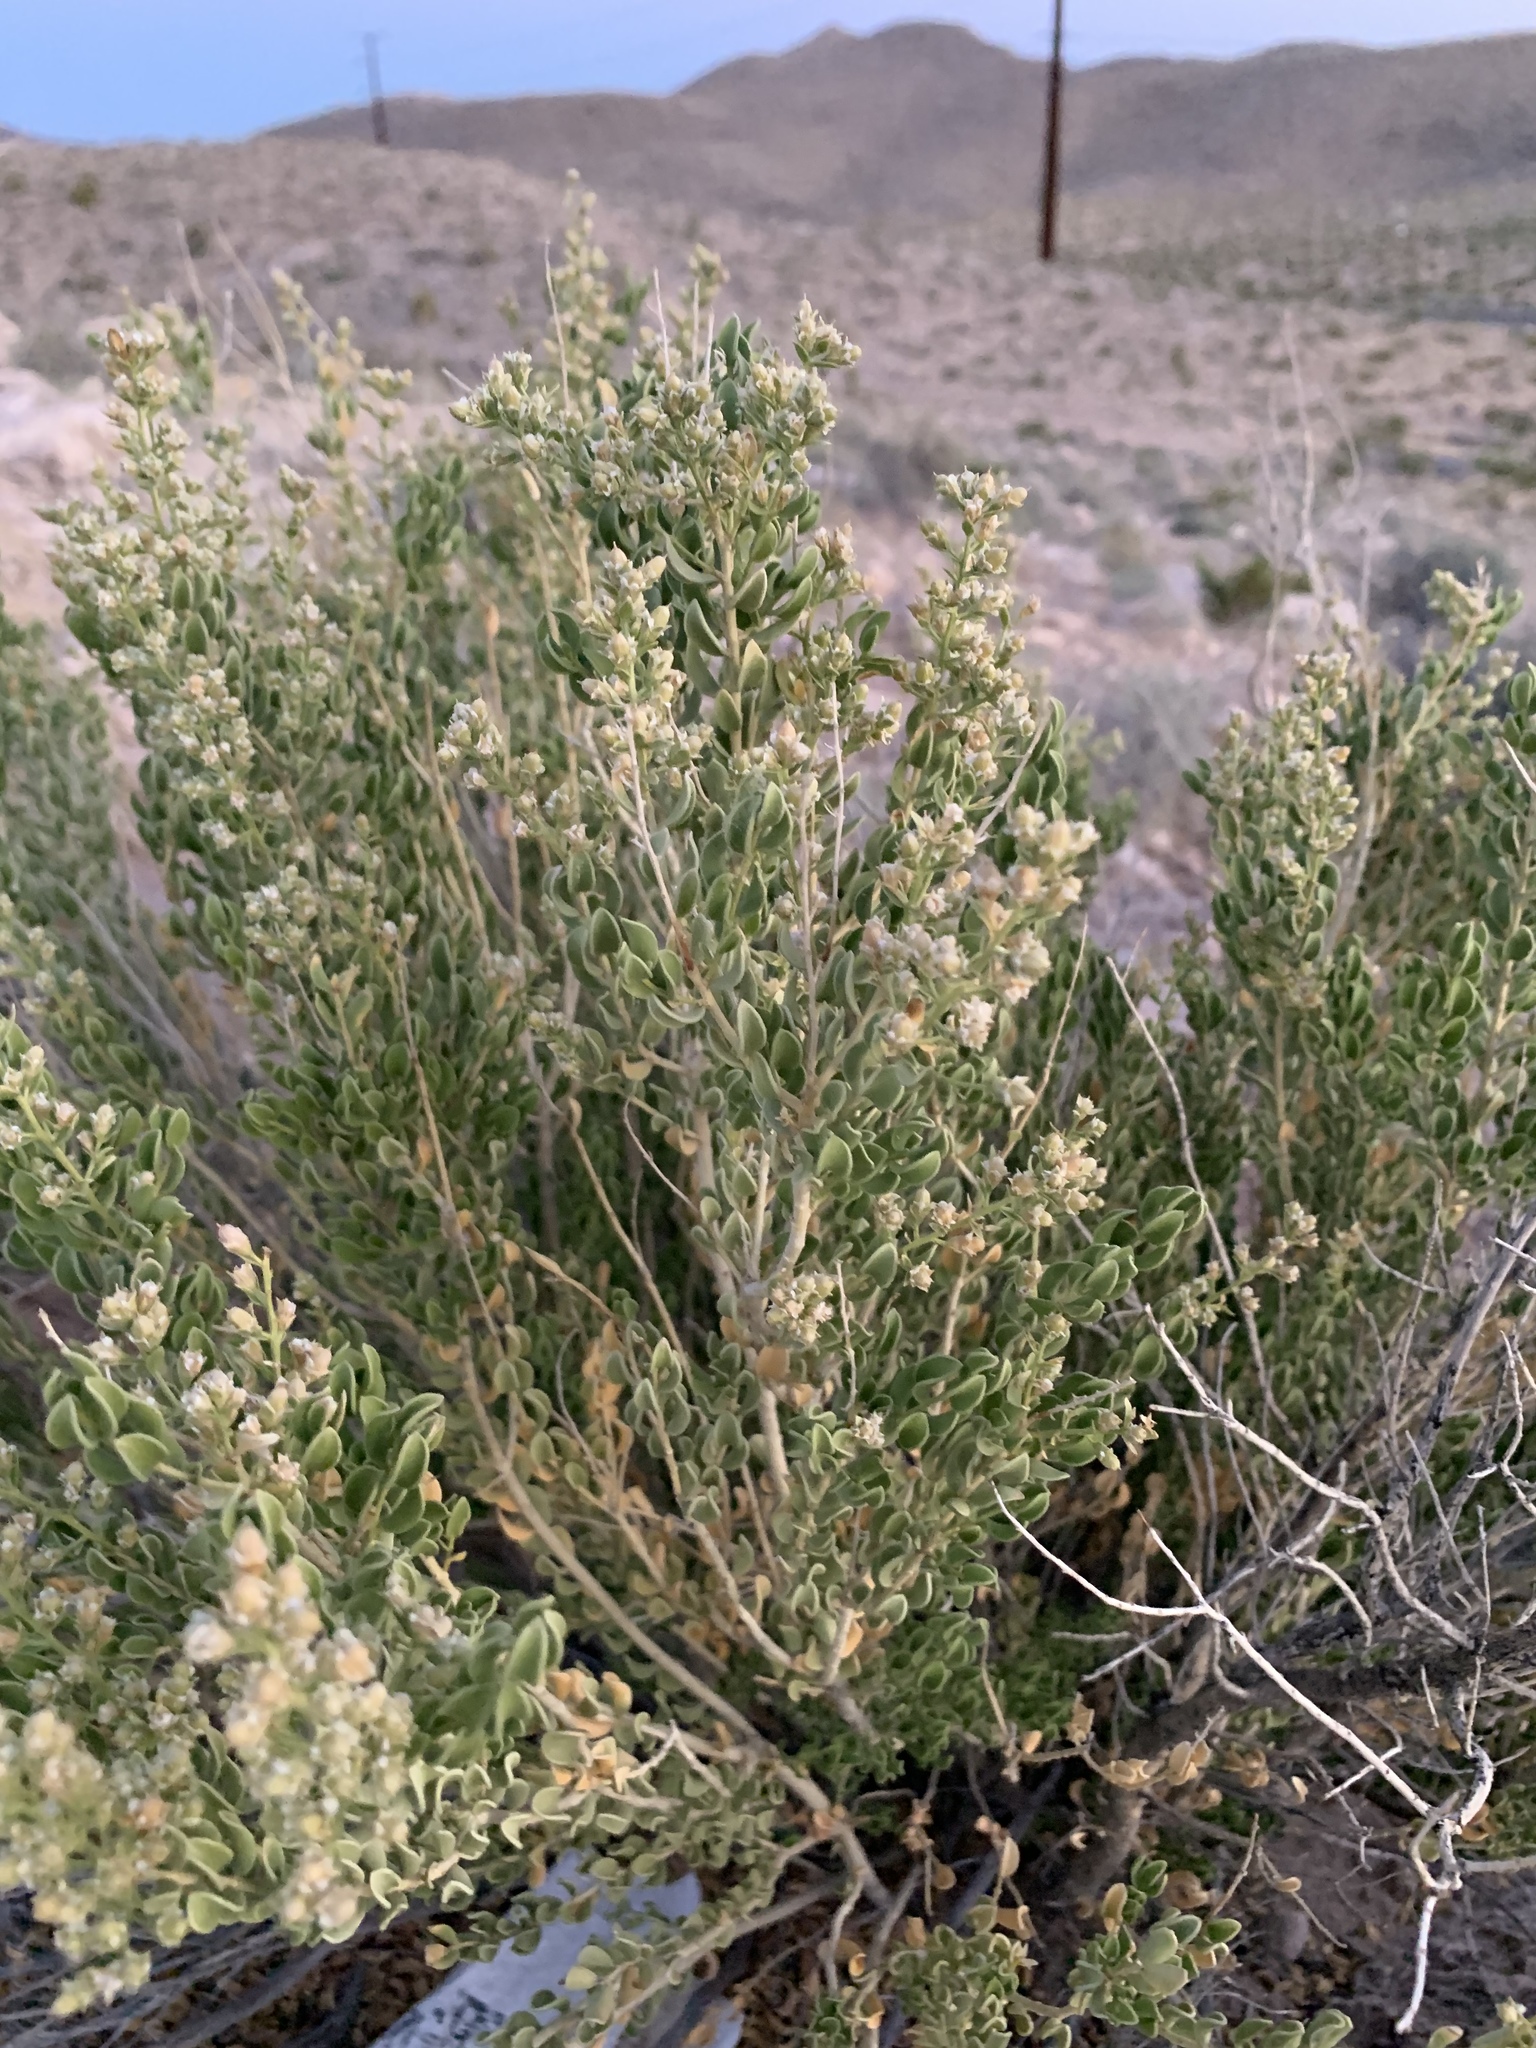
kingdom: Plantae
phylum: Tracheophyta
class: Magnoliopsida
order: Celastrales
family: Celastraceae
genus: Mortonia
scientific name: Mortonia utahensis
